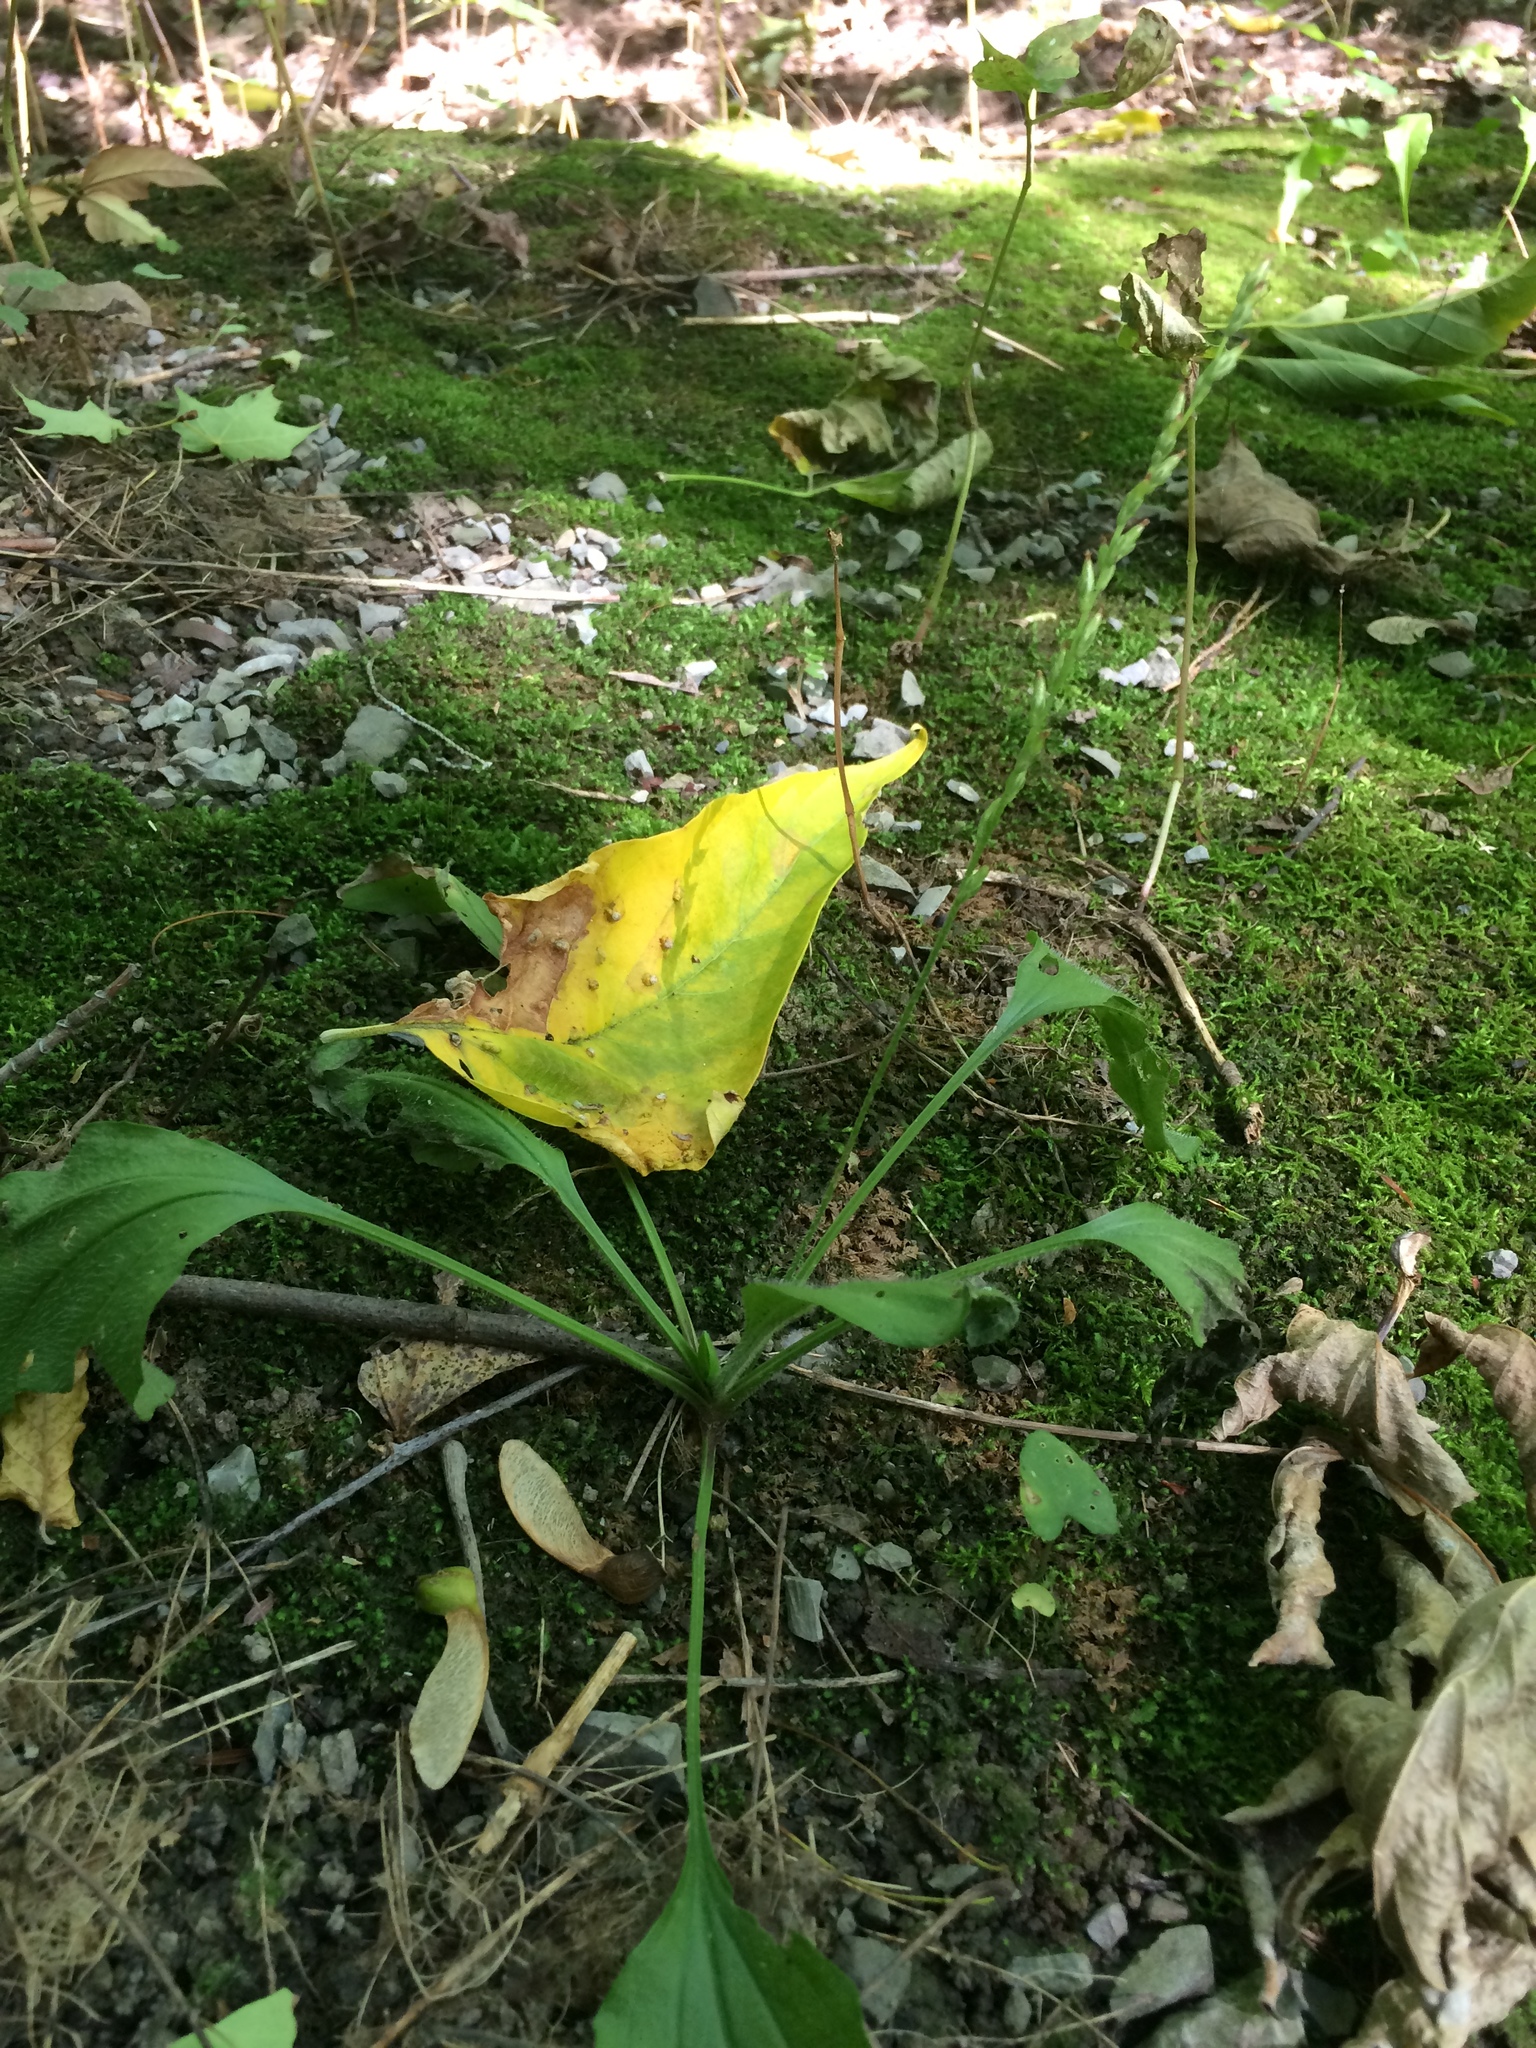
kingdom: Plantae
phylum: Tracheophyta
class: Magnoliopsida
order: Lamiales
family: Plantaginaceae
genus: Plantago
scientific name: Plantago rugelii
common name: American plantain
